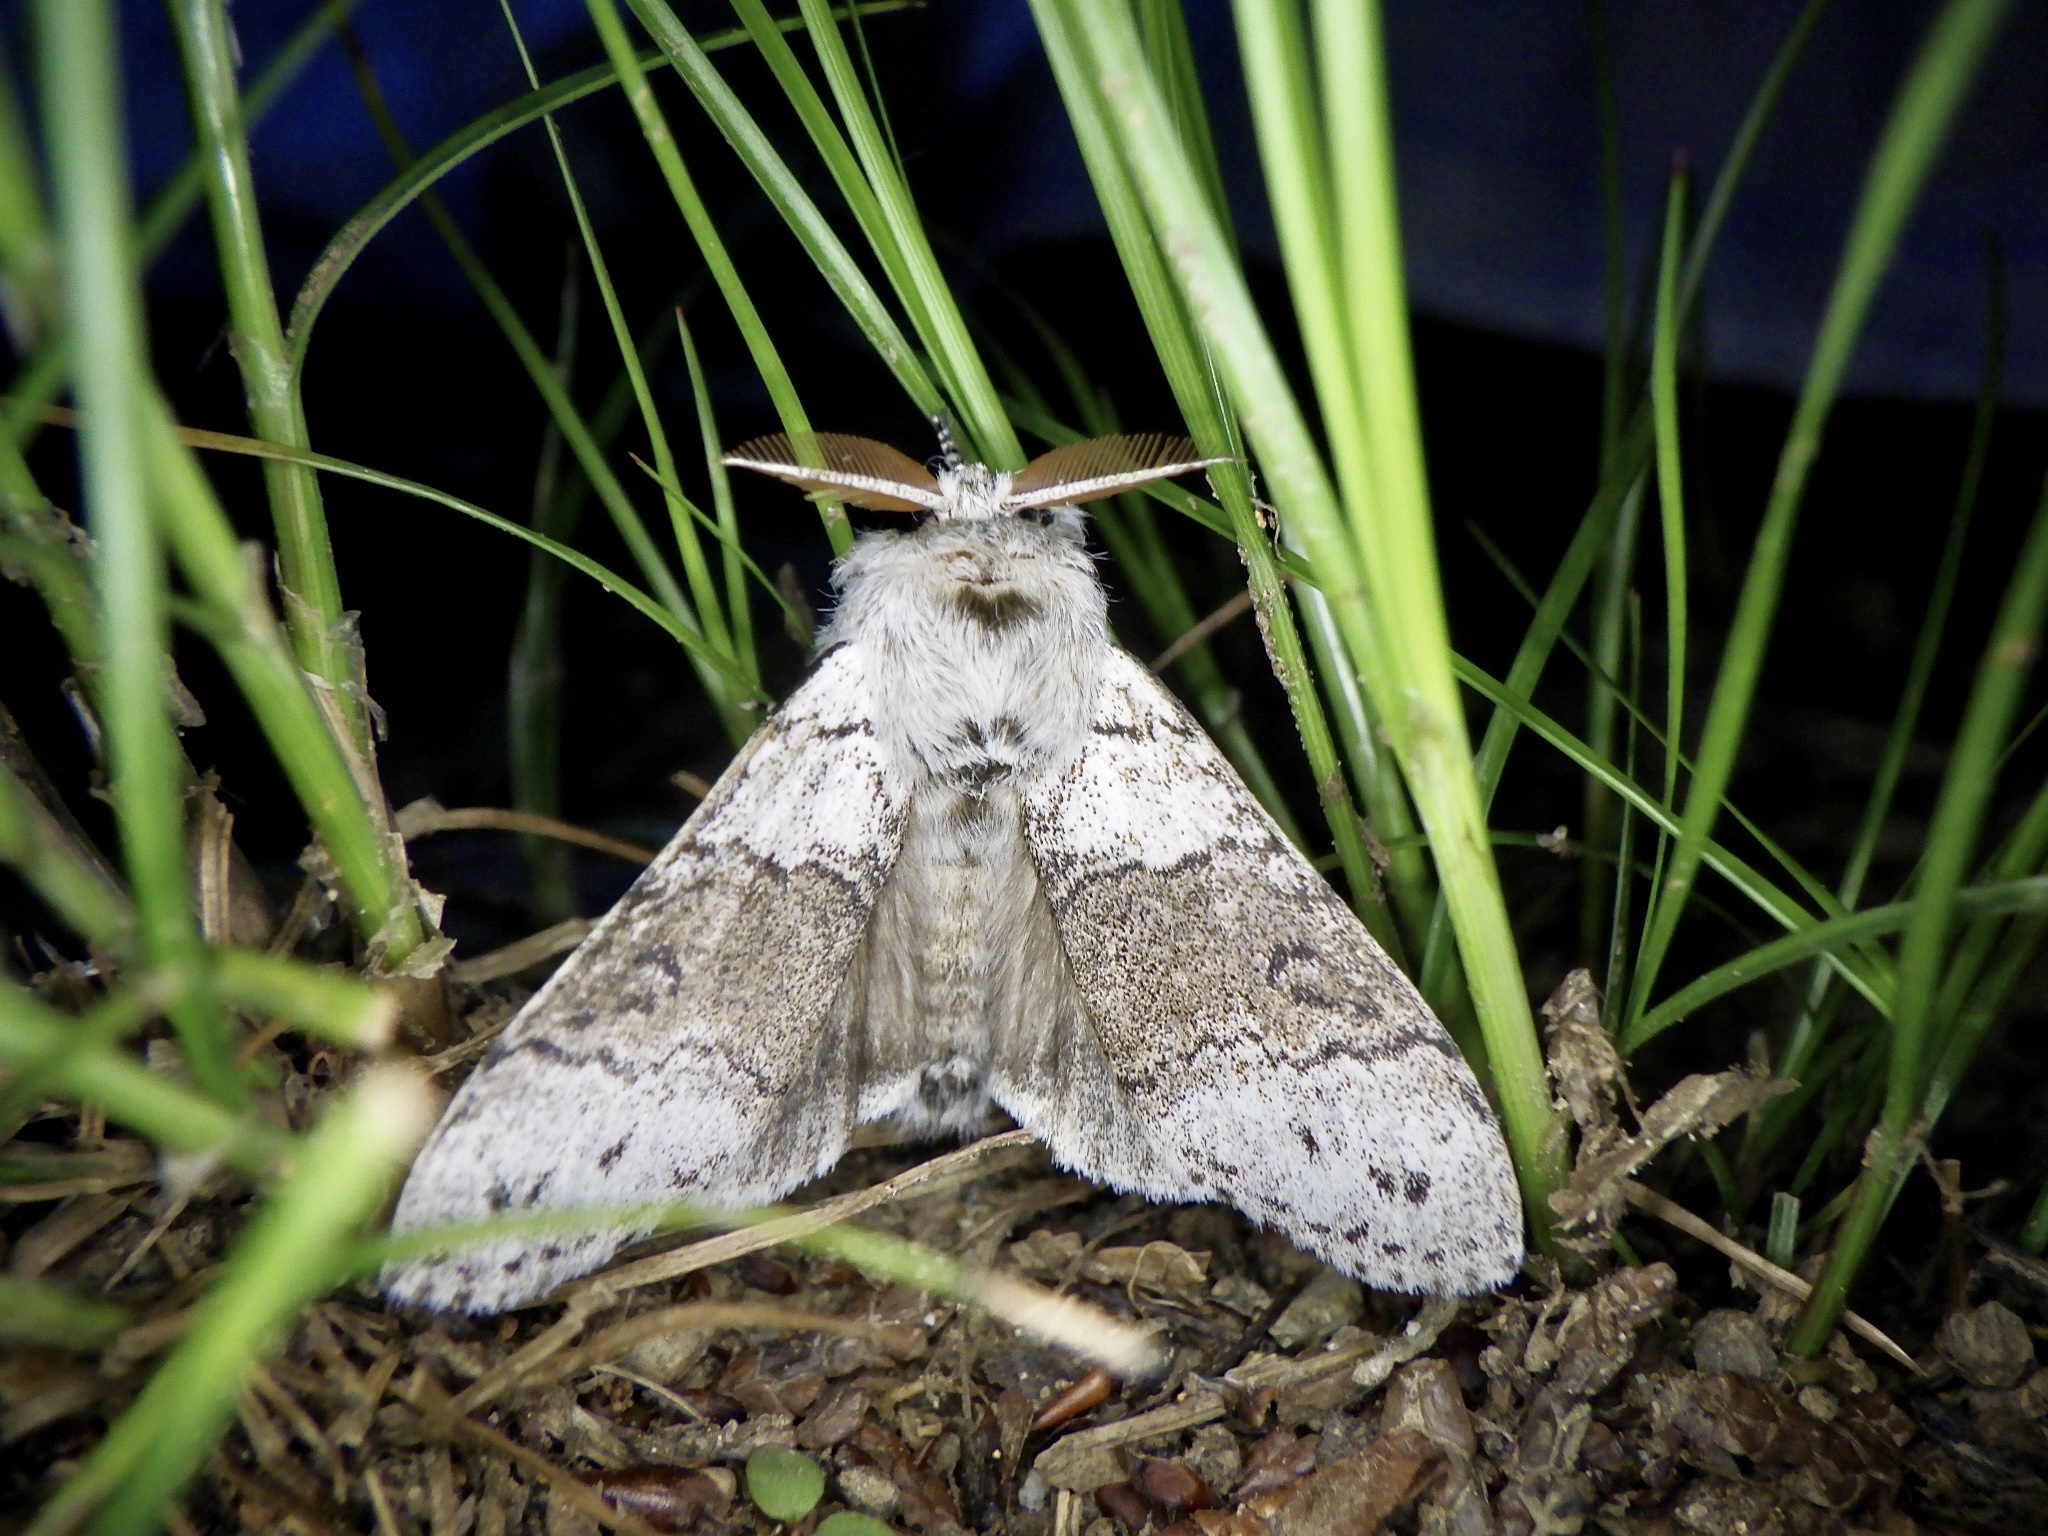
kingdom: Animalia
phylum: Arthropoda
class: Insecta
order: Lepidoptera
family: Erebidae
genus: Calliteara
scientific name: Calliteara
